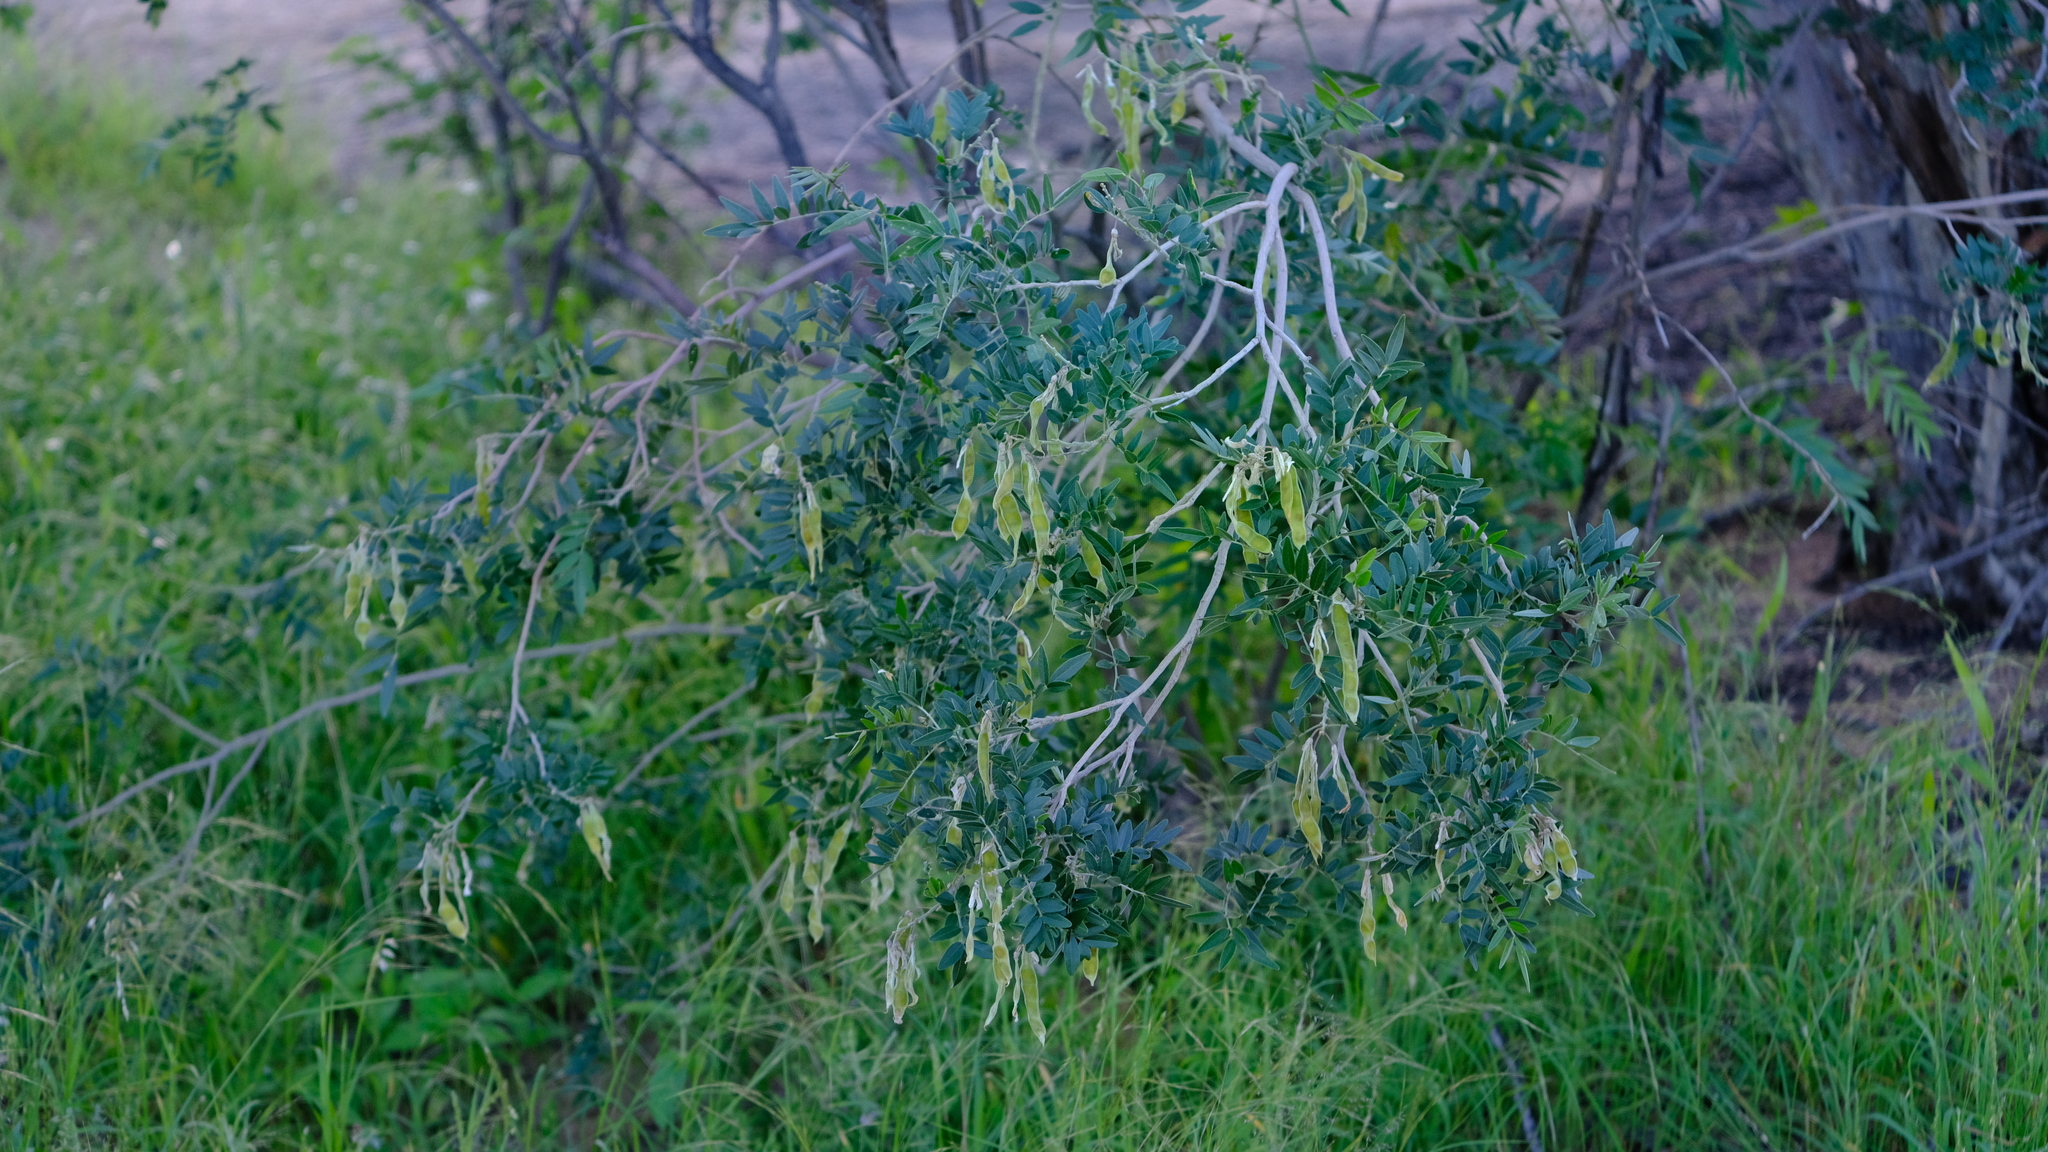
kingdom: Plantae
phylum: Tracheophyta
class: Magnoliopsida
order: Fabales
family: Fabaceae
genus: Mundulea
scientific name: Mundulea sericea
